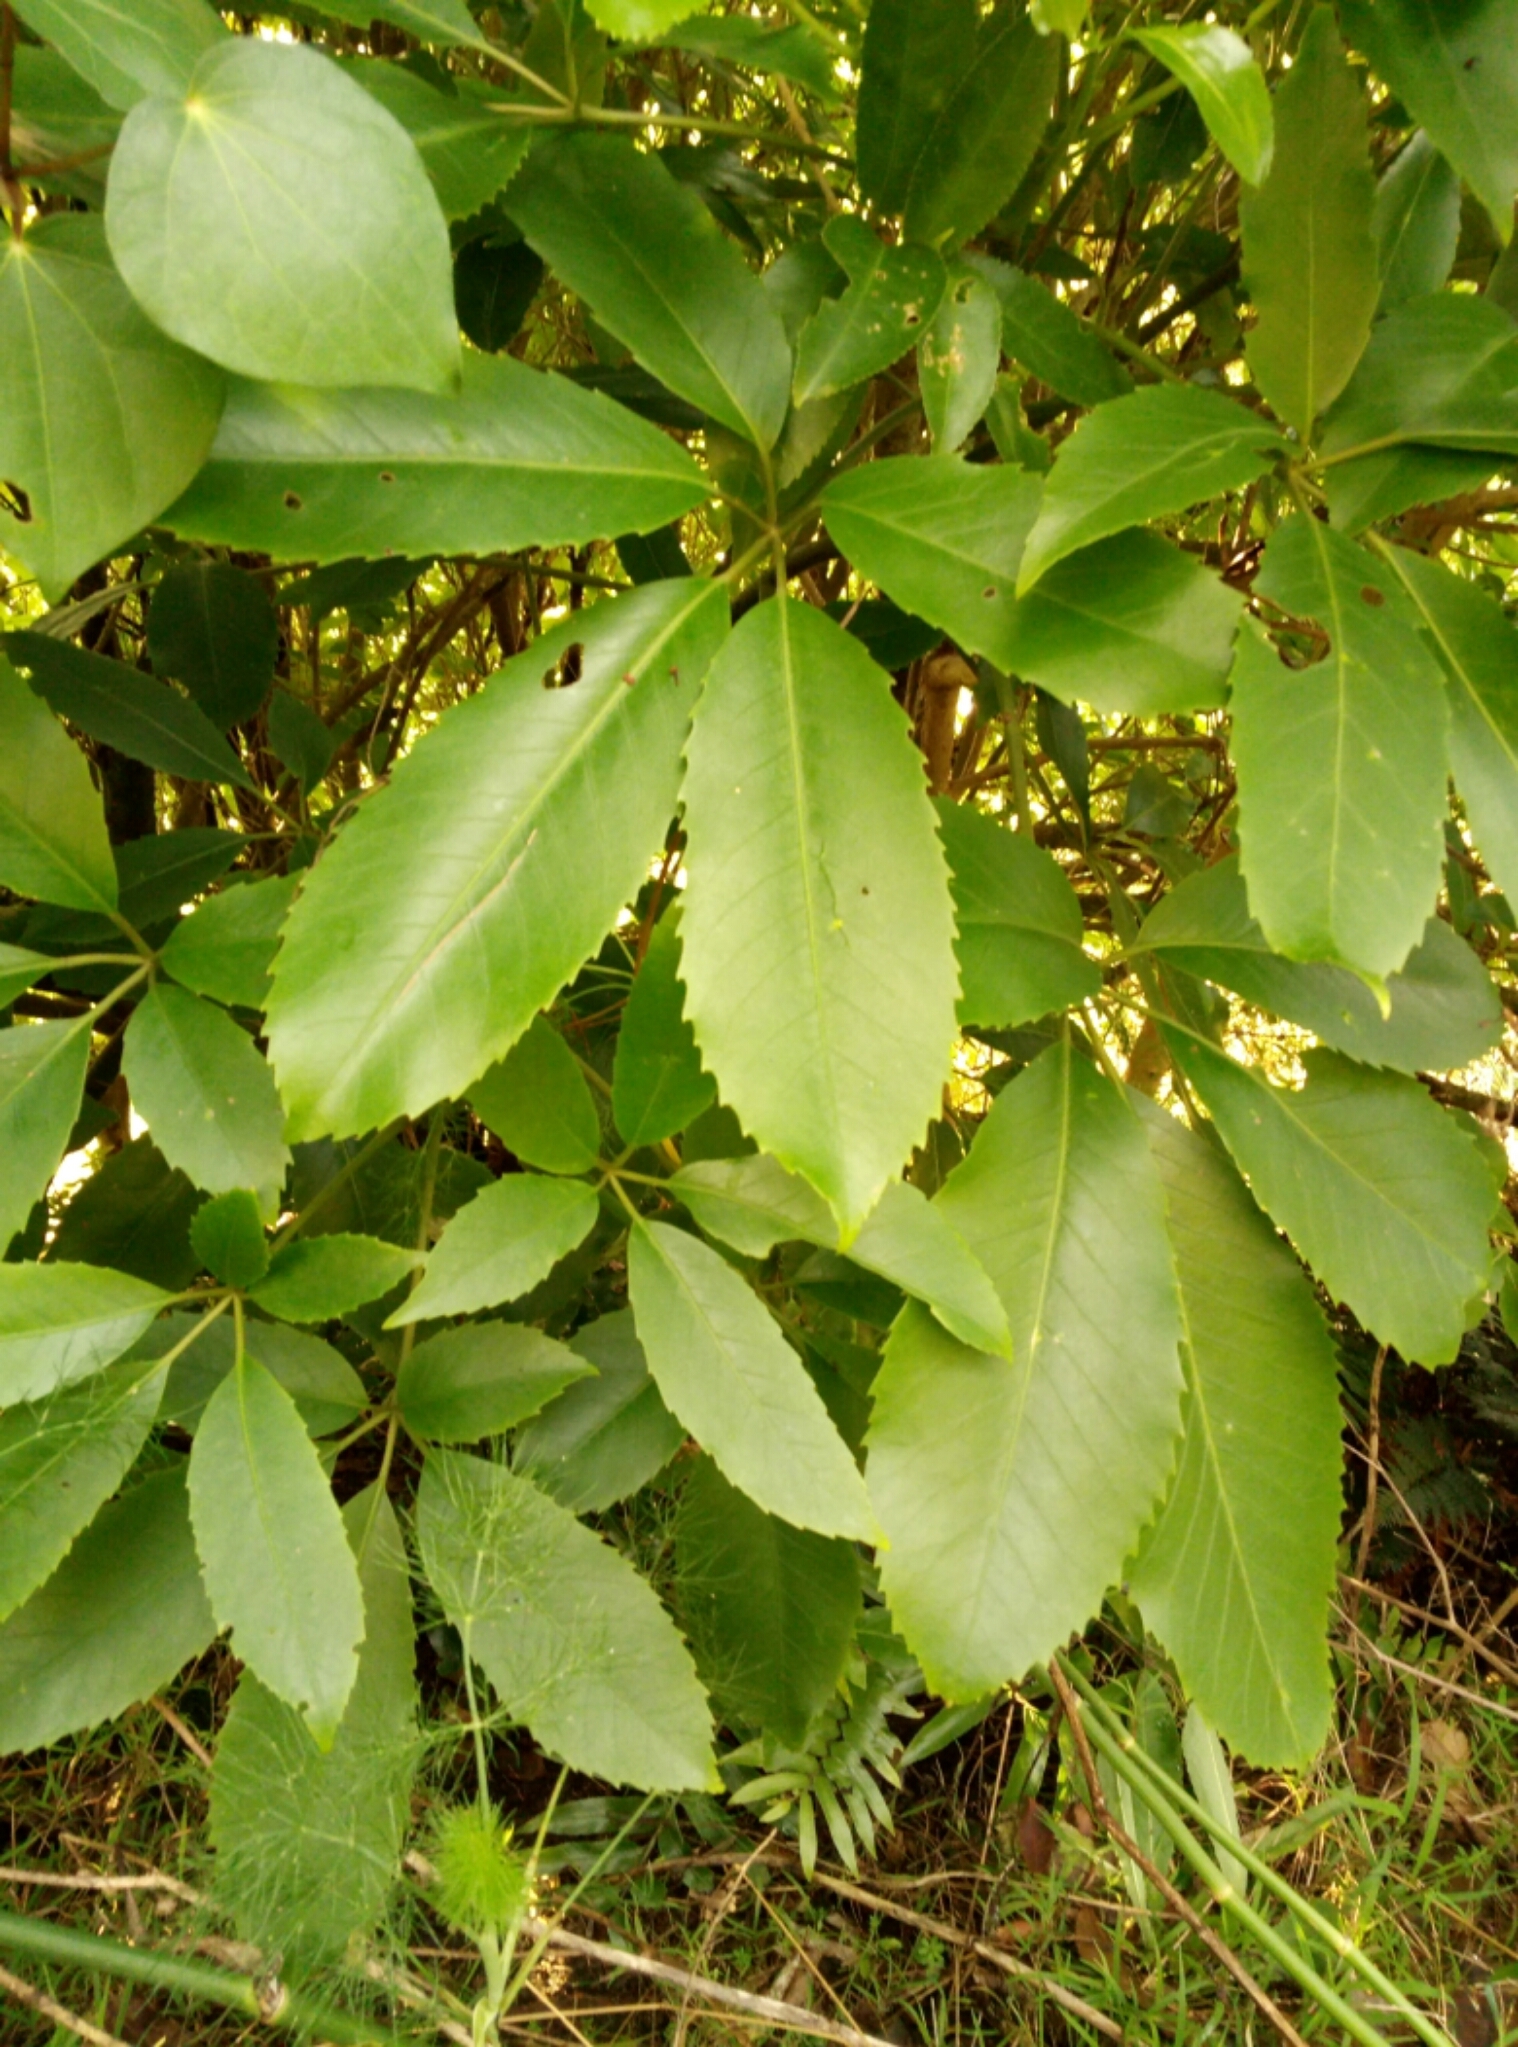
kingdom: Plantae
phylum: Tracheophyta
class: Magnoliopsida
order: Apiales
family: Araliaceae
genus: Neopanax
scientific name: Neopanax arboreus
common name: Five-fingers
